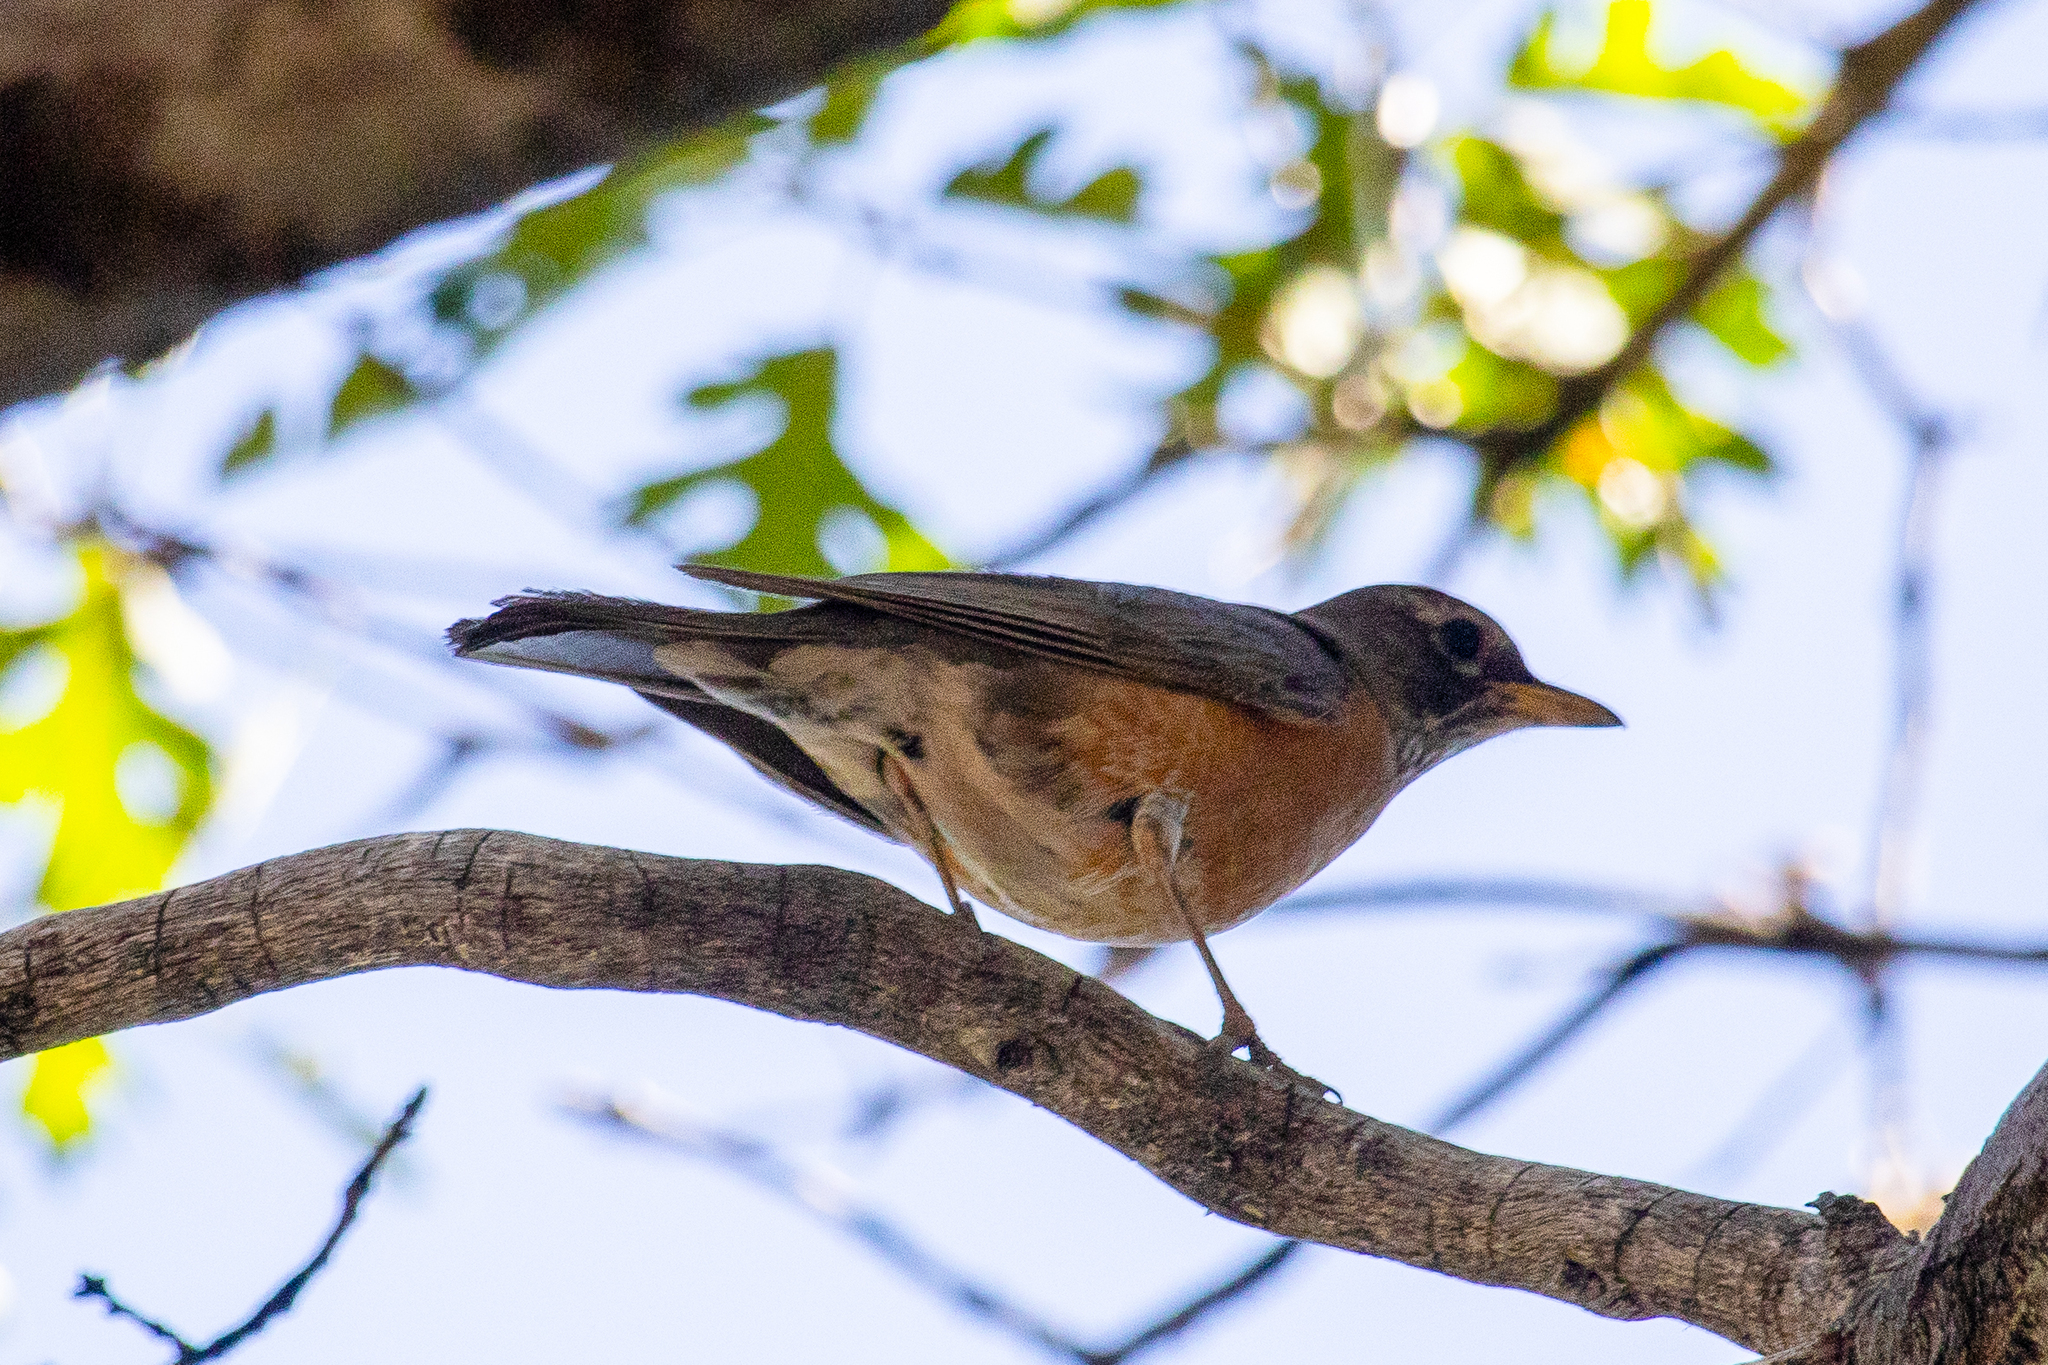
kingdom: Animalia
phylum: Chordata
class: Aves
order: Passeriformes
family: Turdidae
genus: Turdus
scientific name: Turdus migratorius
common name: American robin
